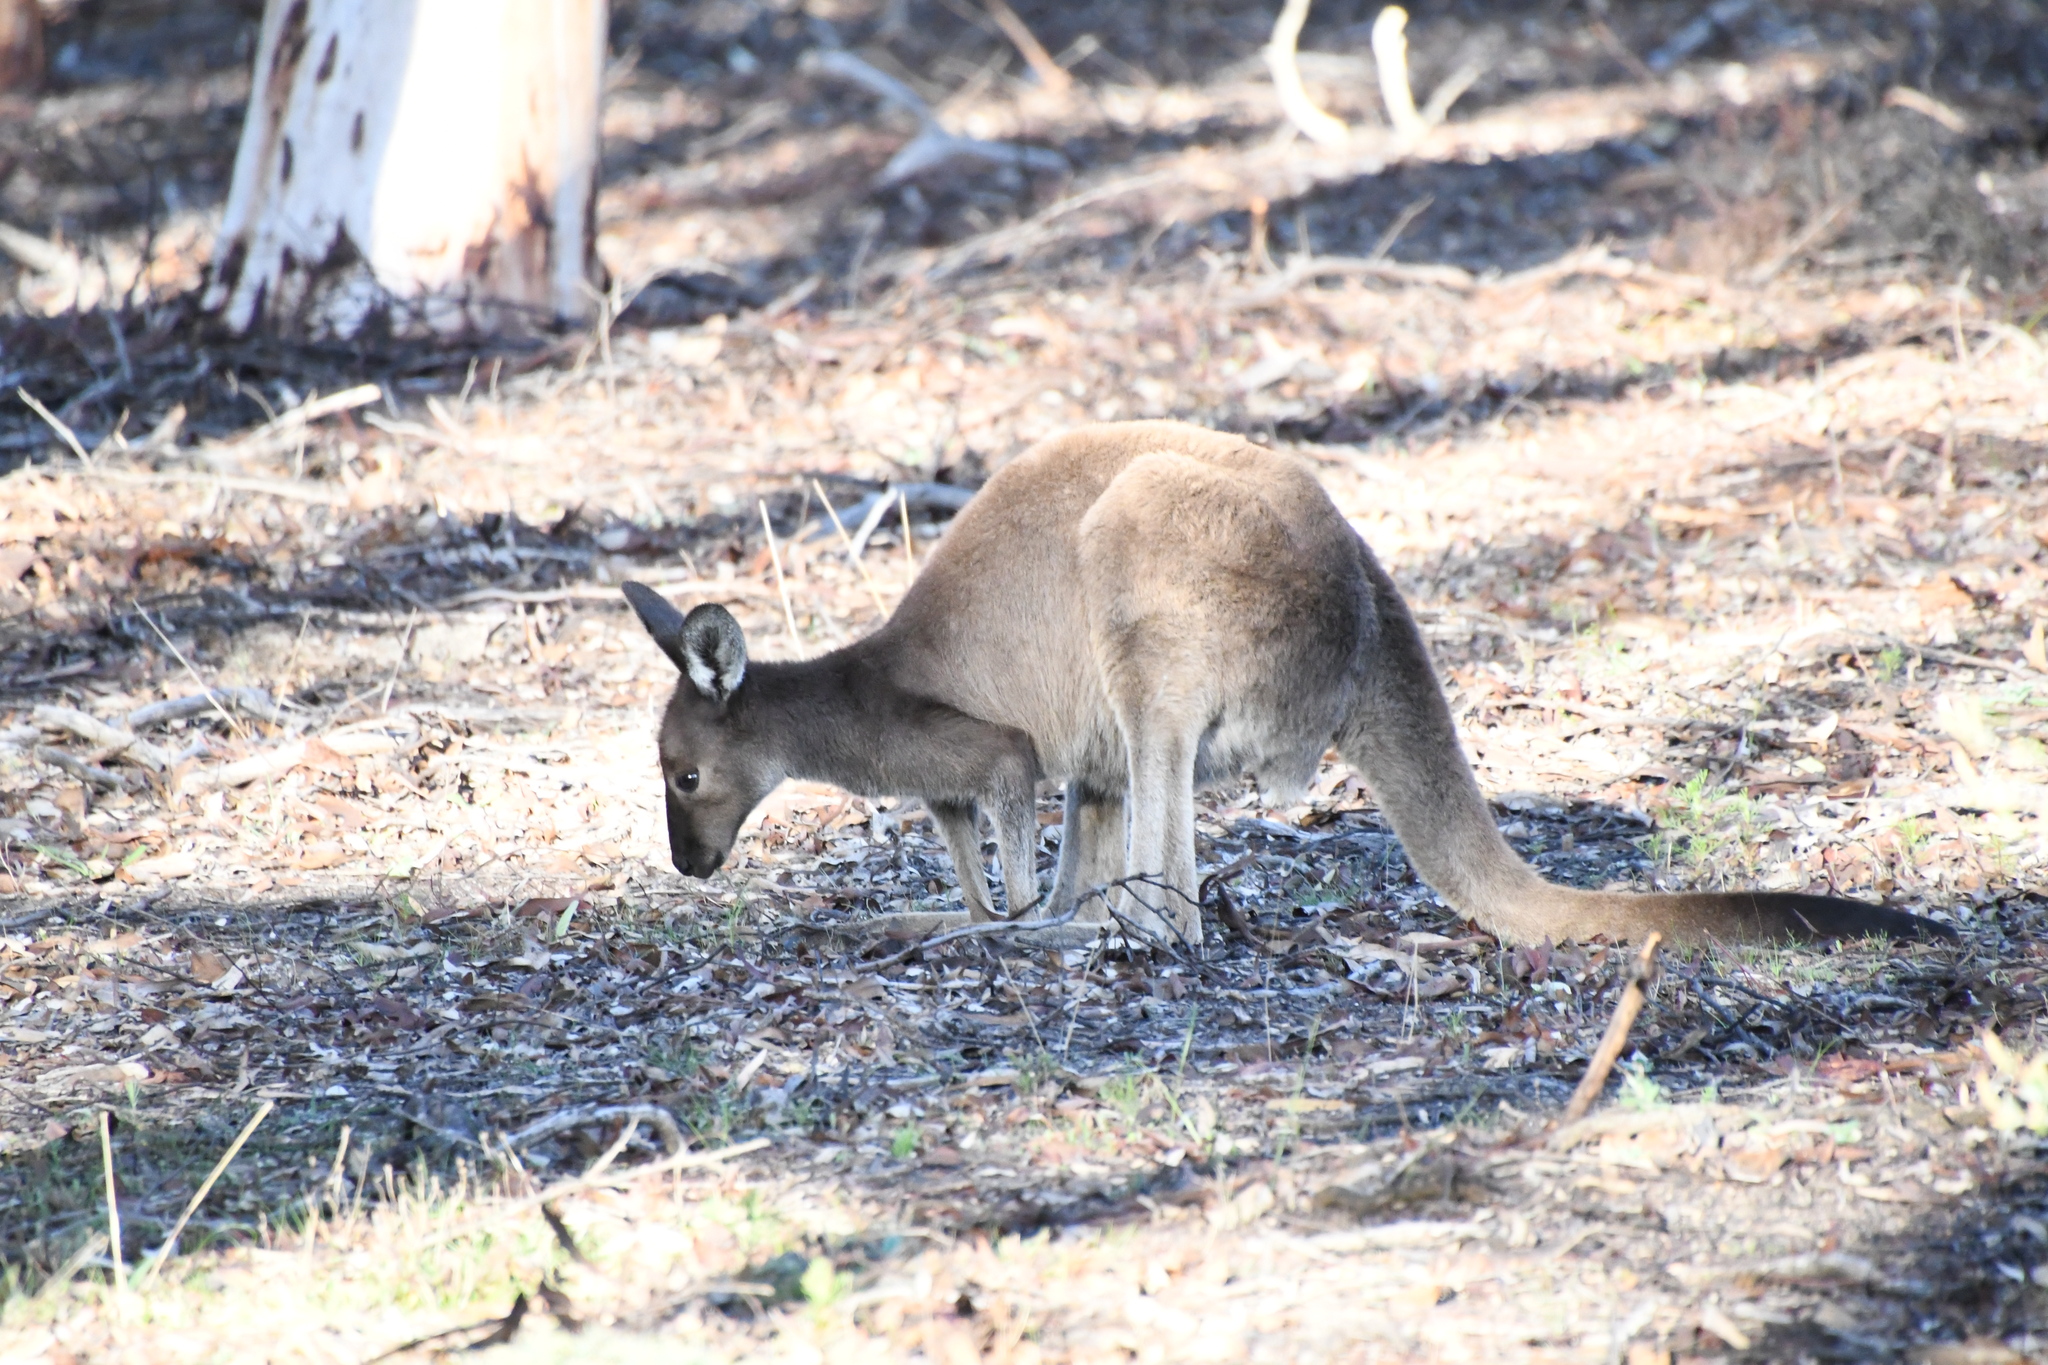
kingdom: Animalia
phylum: Chordata
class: Mammalia
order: Diprotodontia
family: Macropodidae
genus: Macropus
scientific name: Macropus fuliginosus
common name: Western grey kangaroo
